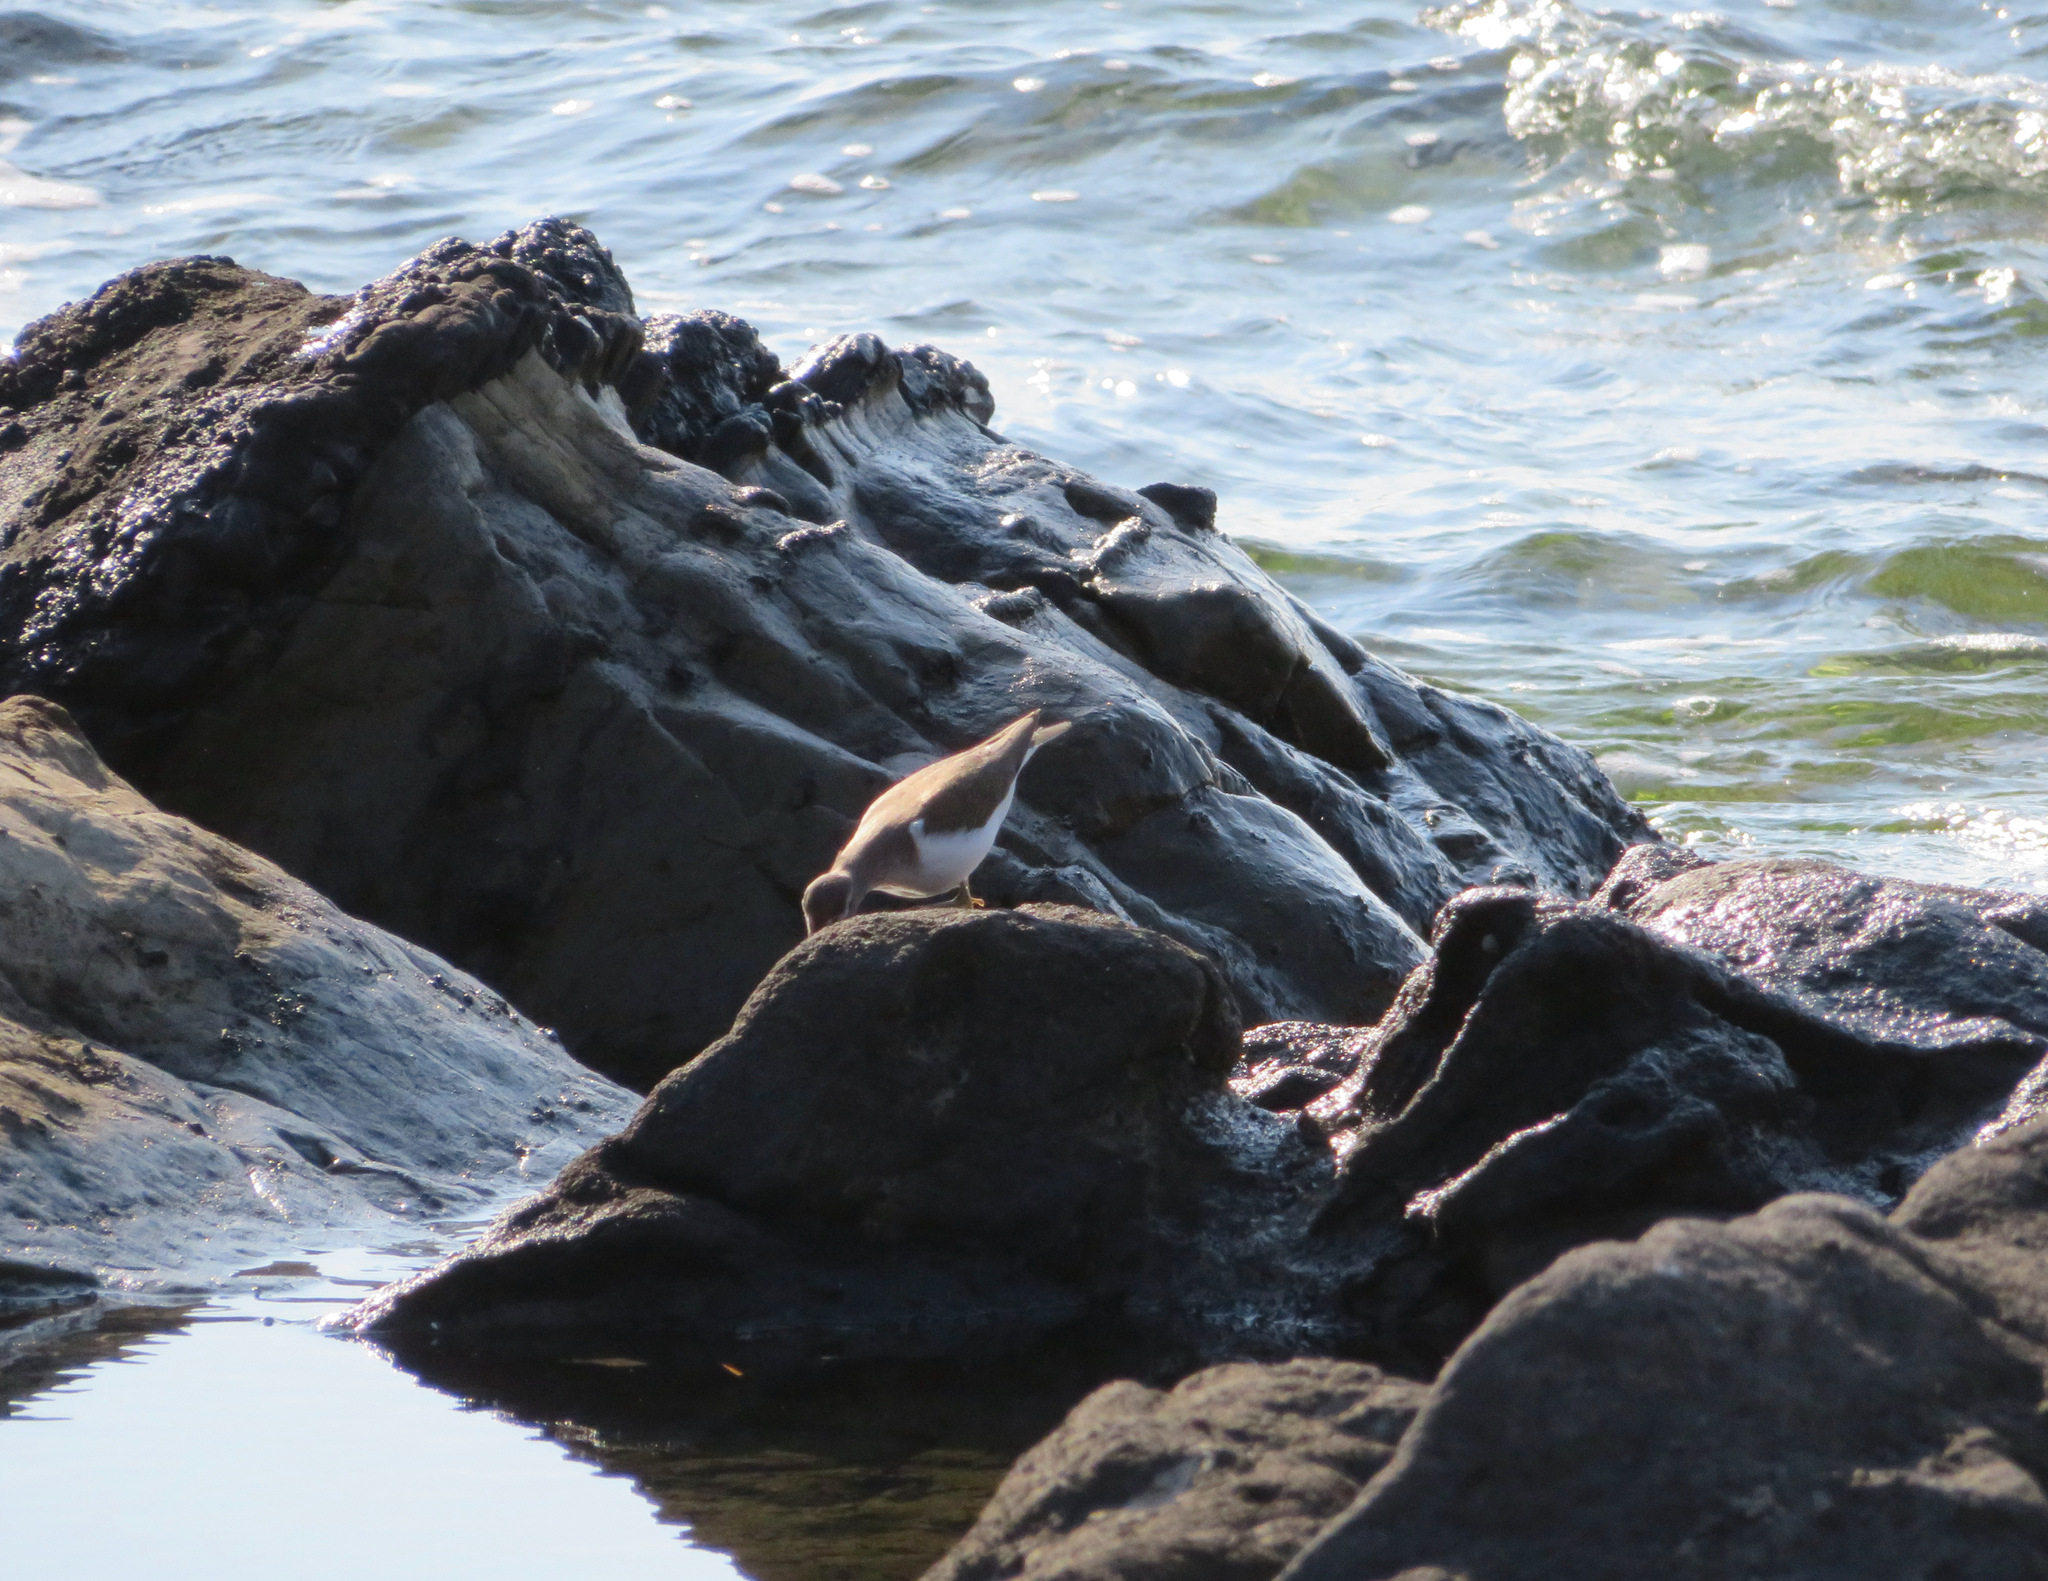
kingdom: Animalia
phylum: Chordata
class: Aves
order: Charadriiformes
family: Scolopacidae
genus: Actitis
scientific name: Actitis hypoleucos
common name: Common sandpiper
